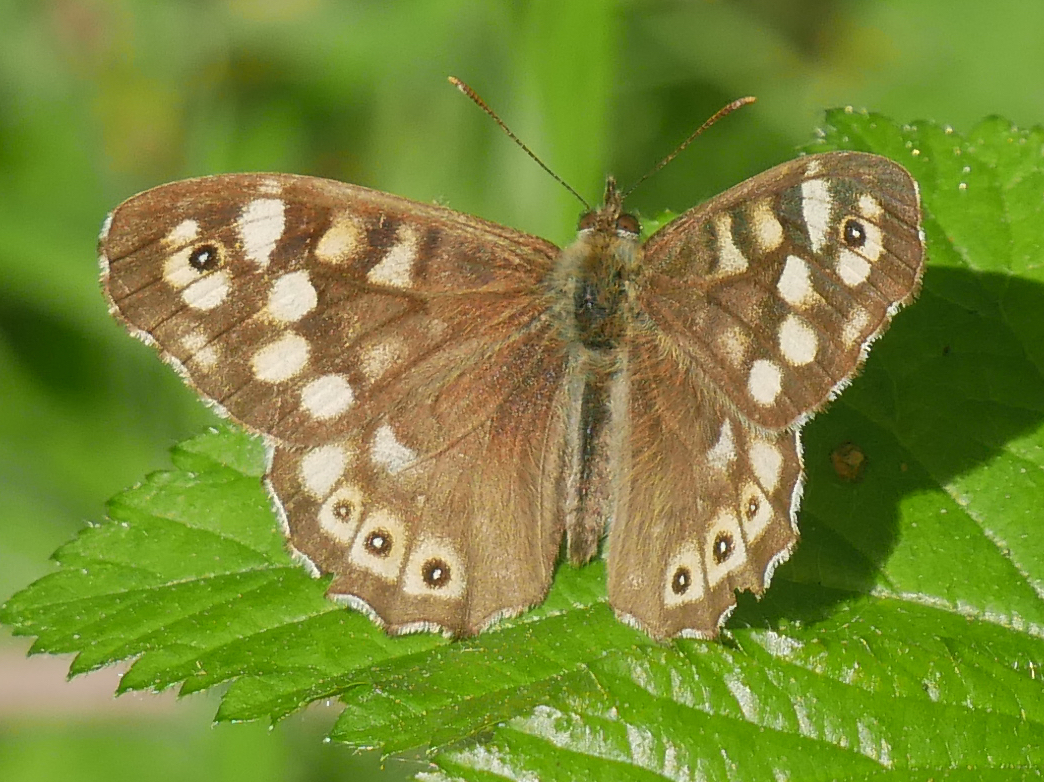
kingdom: Animalia
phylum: Arthropoda
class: Insecta
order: Lepidoptera
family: Nymphalidae
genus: Pararge
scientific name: Pararge aegeria
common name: Speckled wood
